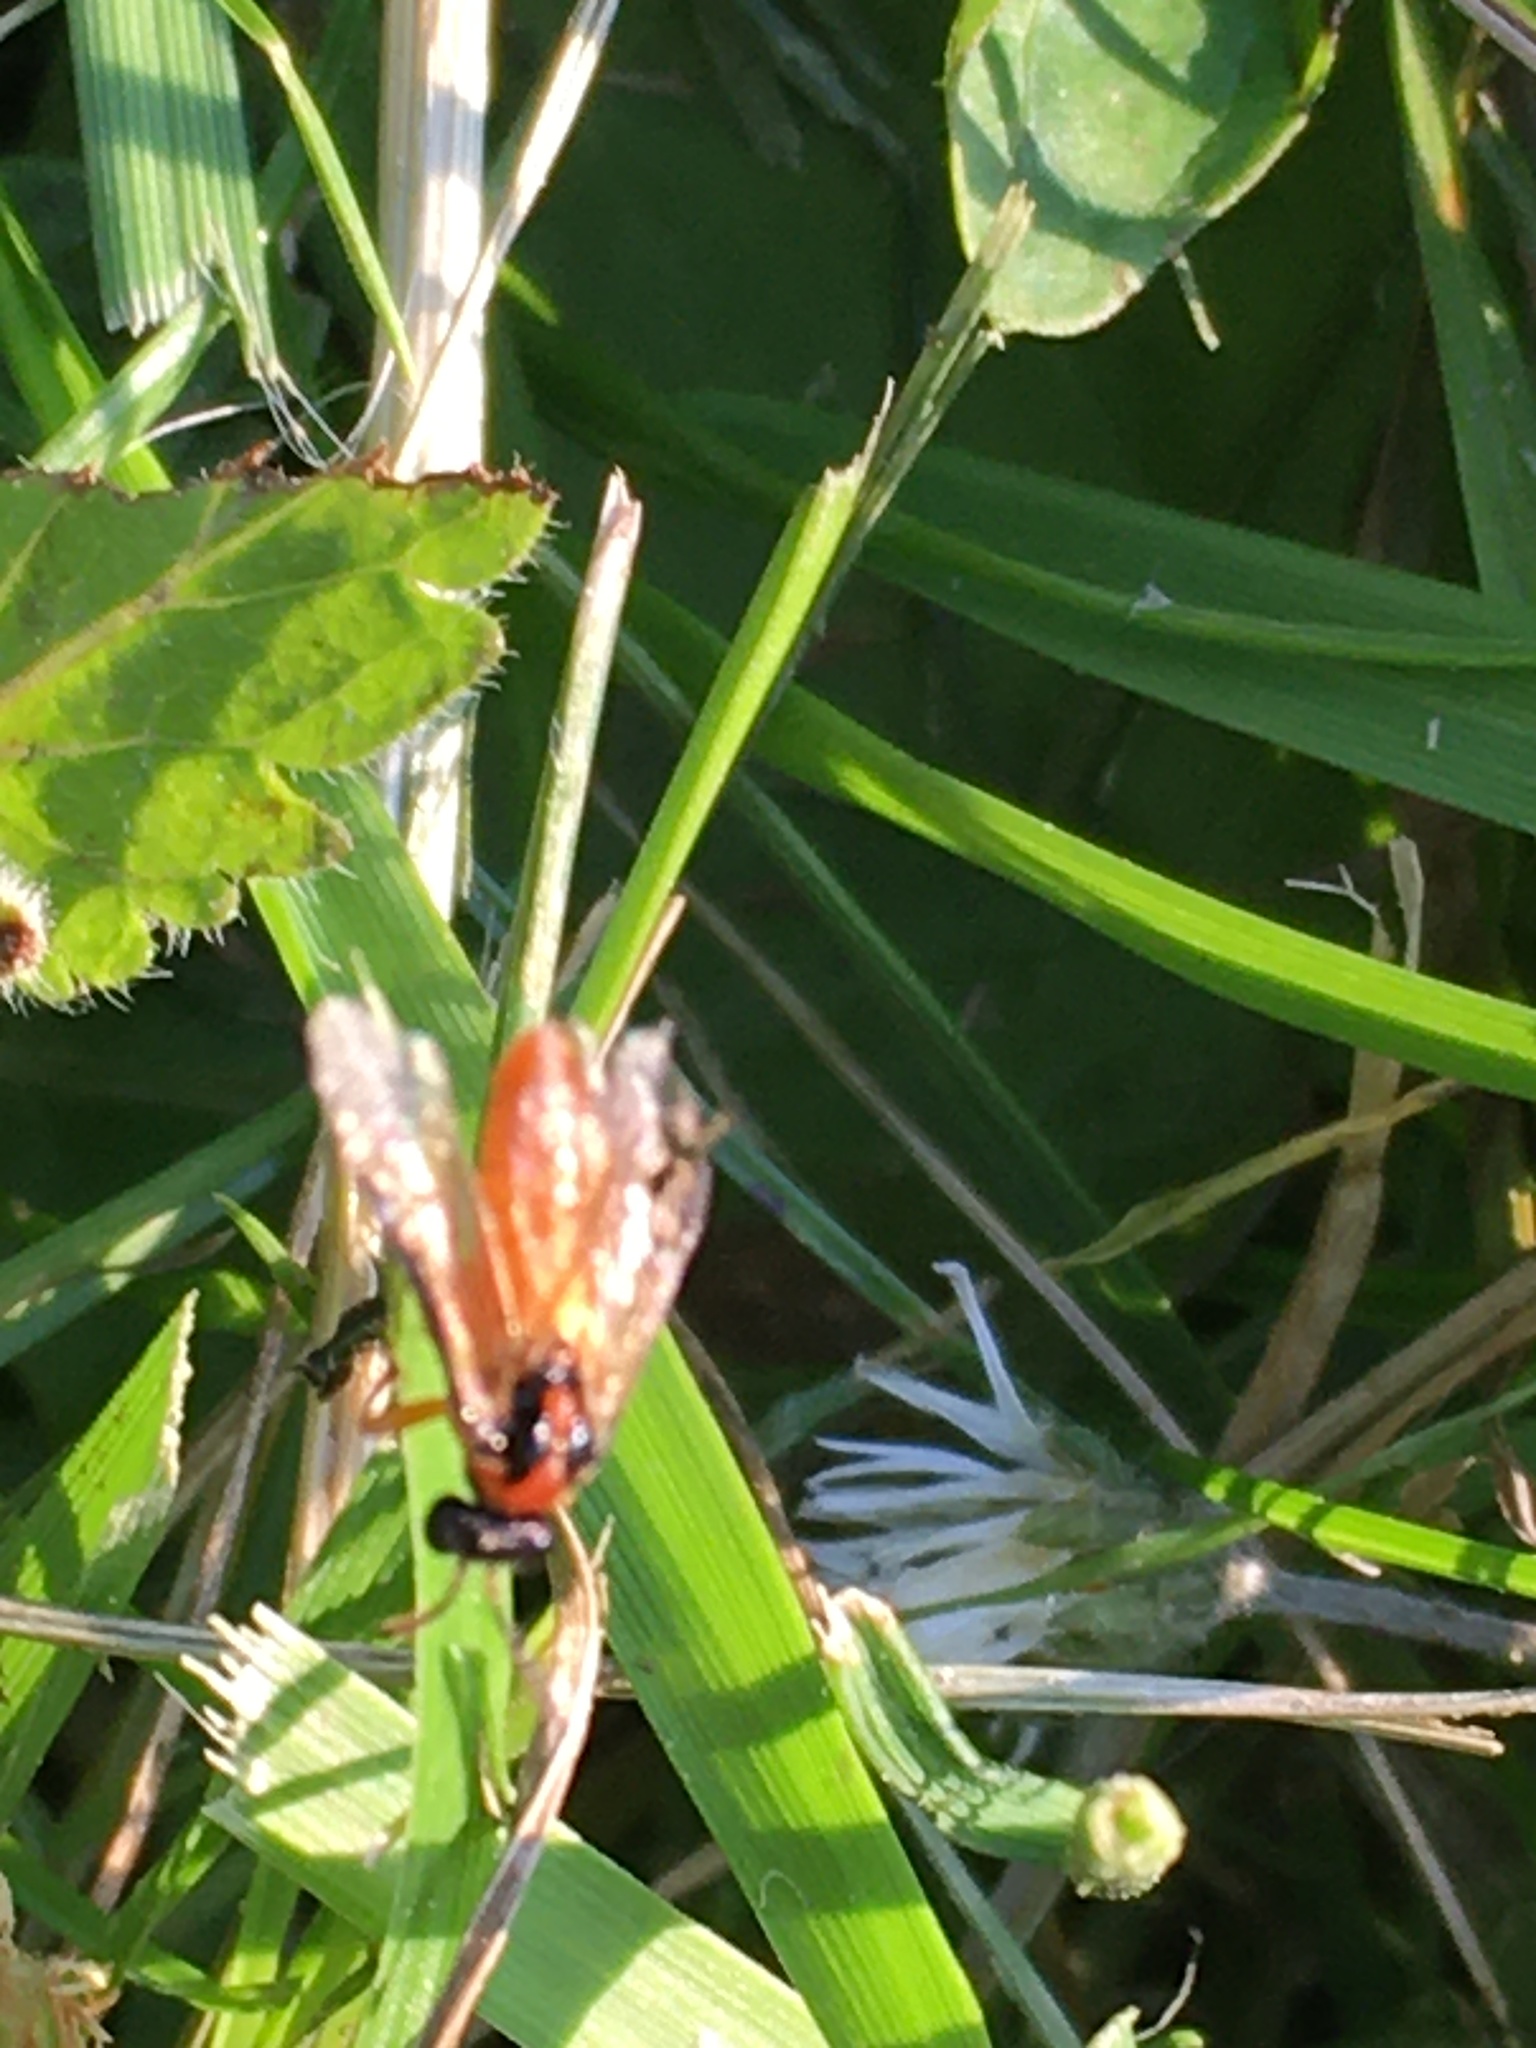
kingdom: Animalia
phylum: Arthropoda
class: Insecta
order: Hymenoptera
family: Tenthredinidae
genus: Athalia
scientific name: Athalia rosae
